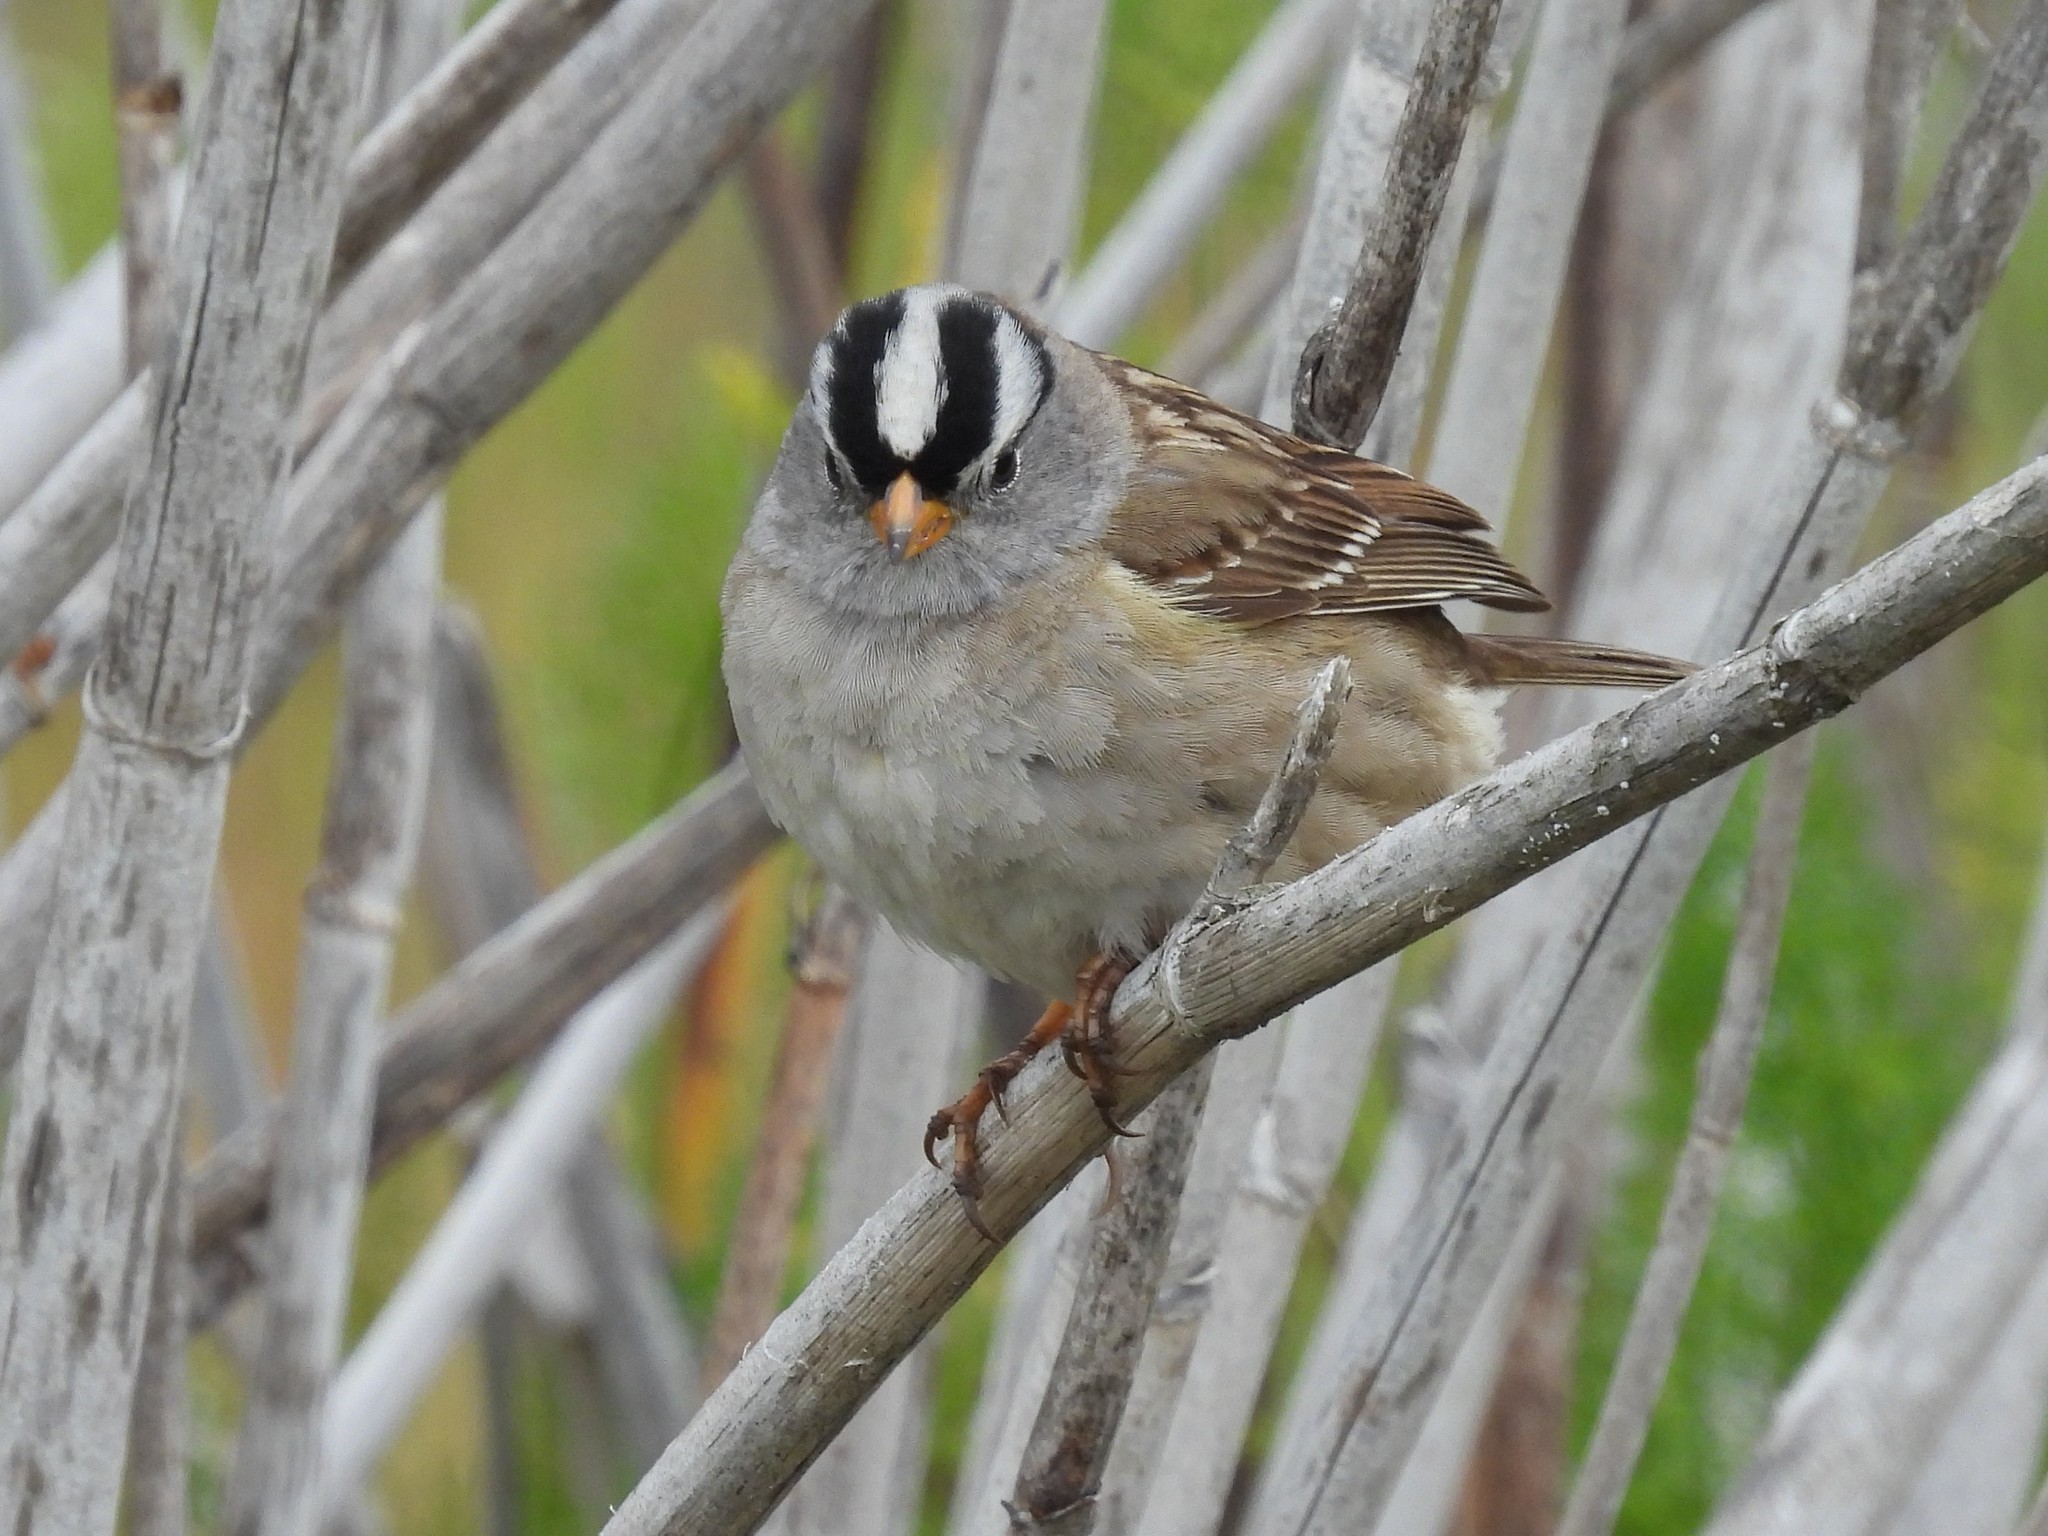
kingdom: Animalia
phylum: Chordata
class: Aves
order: Passeriformes
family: Passerellidae
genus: Zonotrichia
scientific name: Zonotrichia leucophrys
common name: White-crowned sparrow
